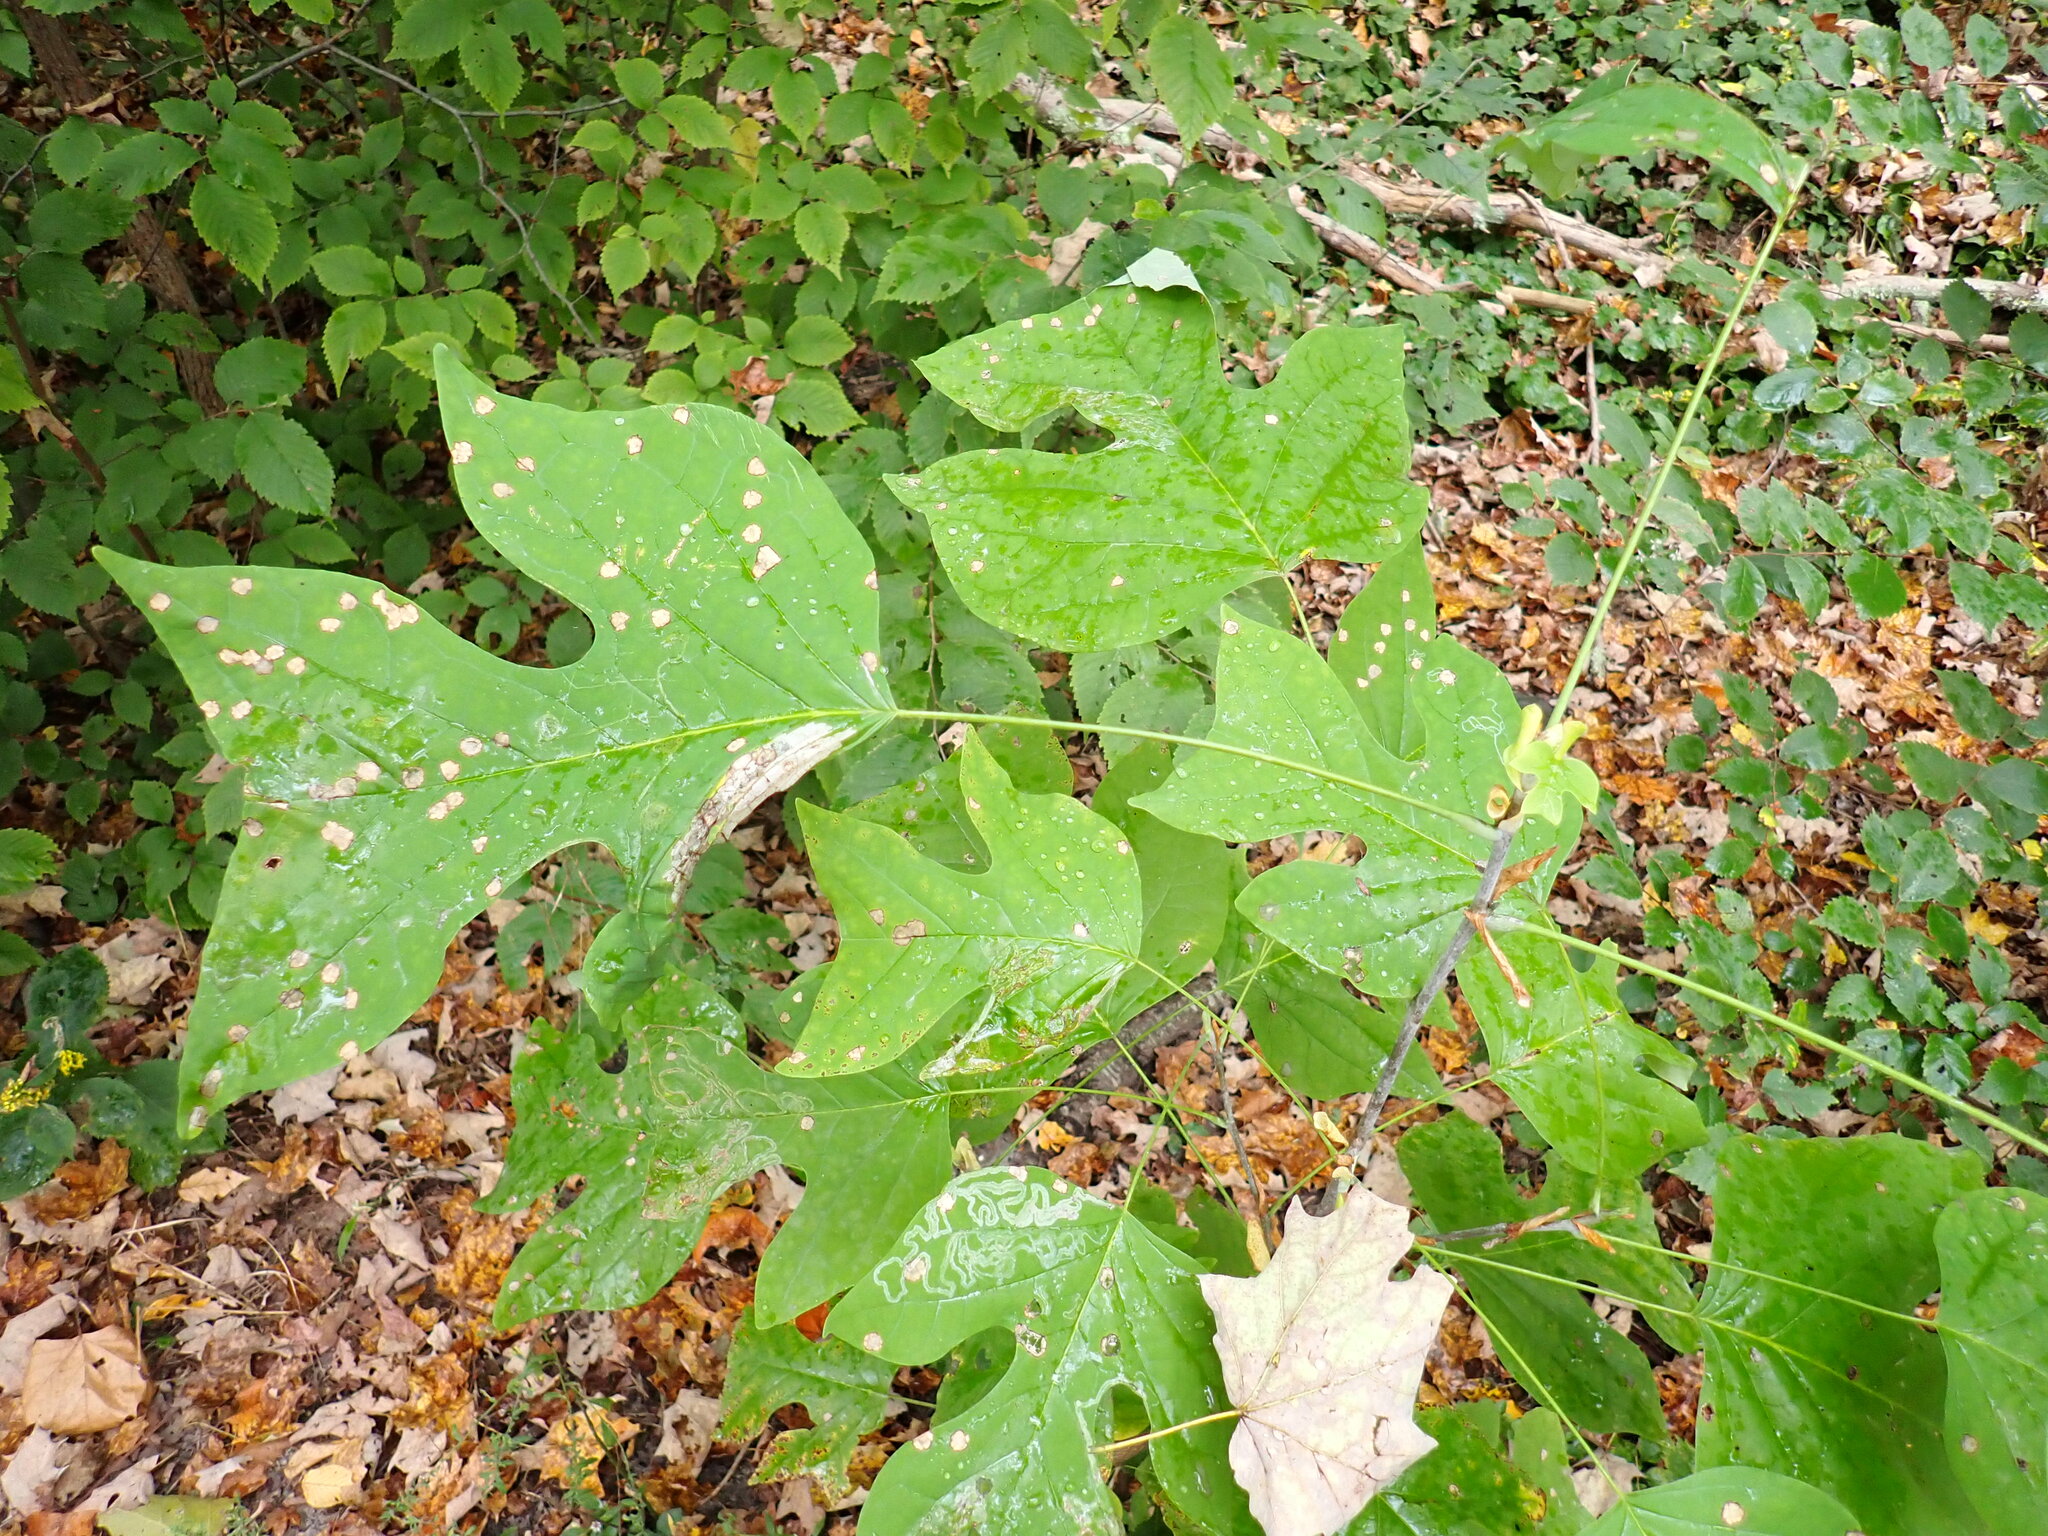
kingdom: Plantae
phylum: Tracheophyta
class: Magnoliopsida
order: Magnoliales
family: Magnoliaceae
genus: Liriodendron
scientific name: Liriodendron tulipifera
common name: Tulip tree
